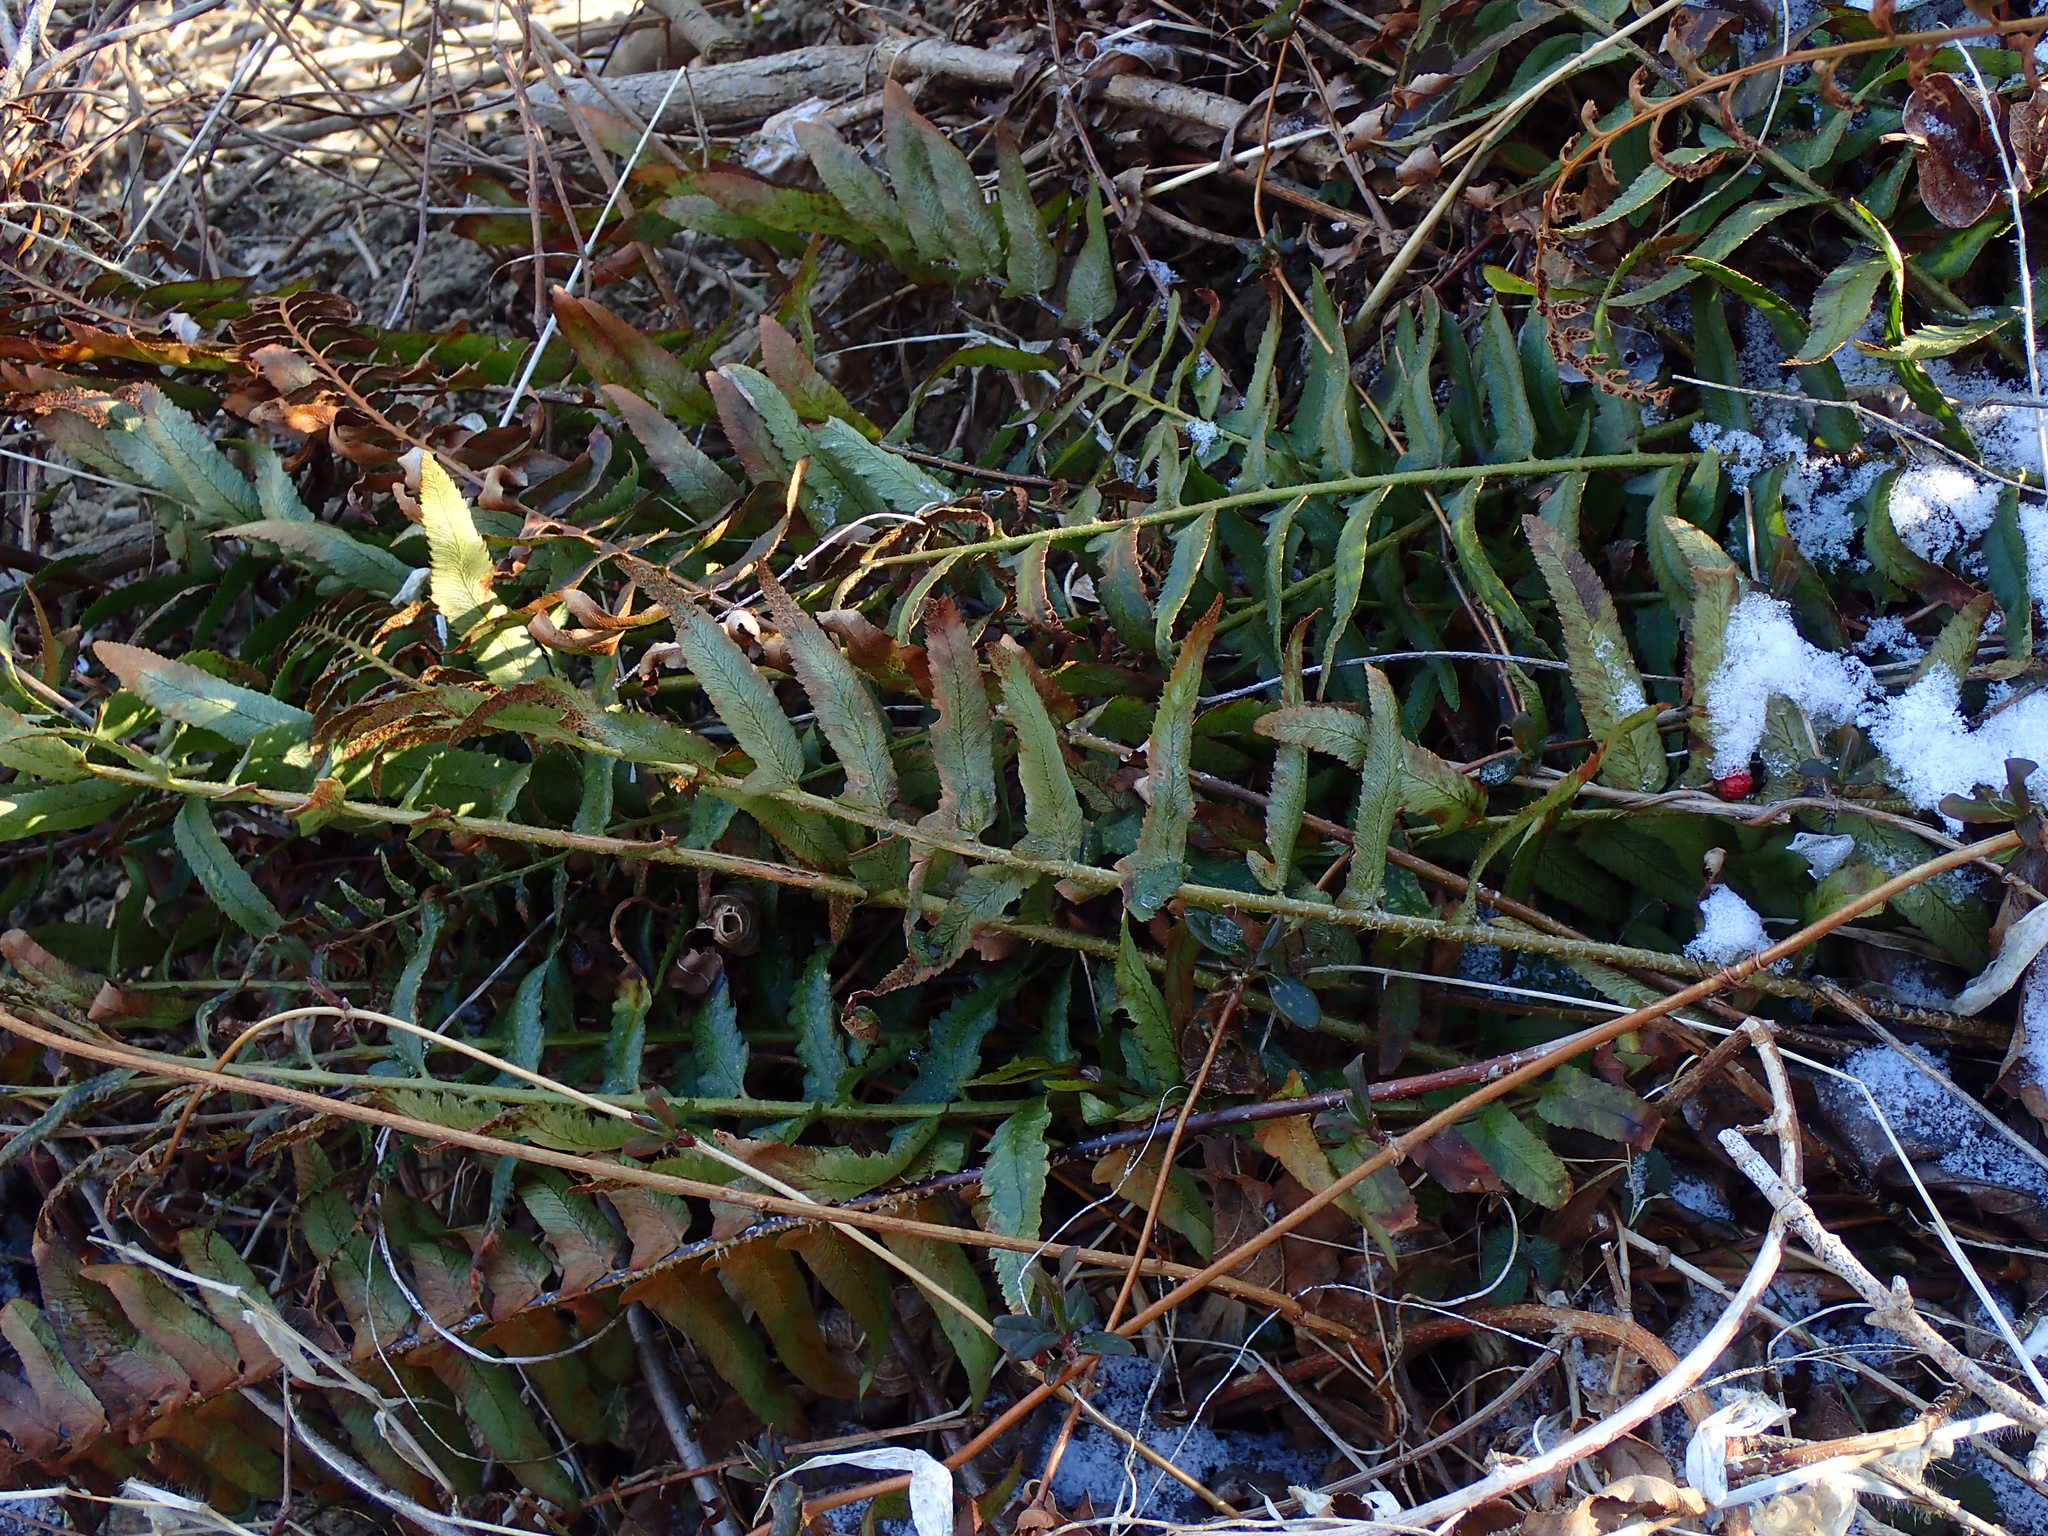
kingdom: Plantae
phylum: Tracheophyta
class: Polypodiopsida
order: Polypodiales
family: Dryopteridaceae
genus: Polystichum
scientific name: Polystichum acrostichoides
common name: Christmas fern
